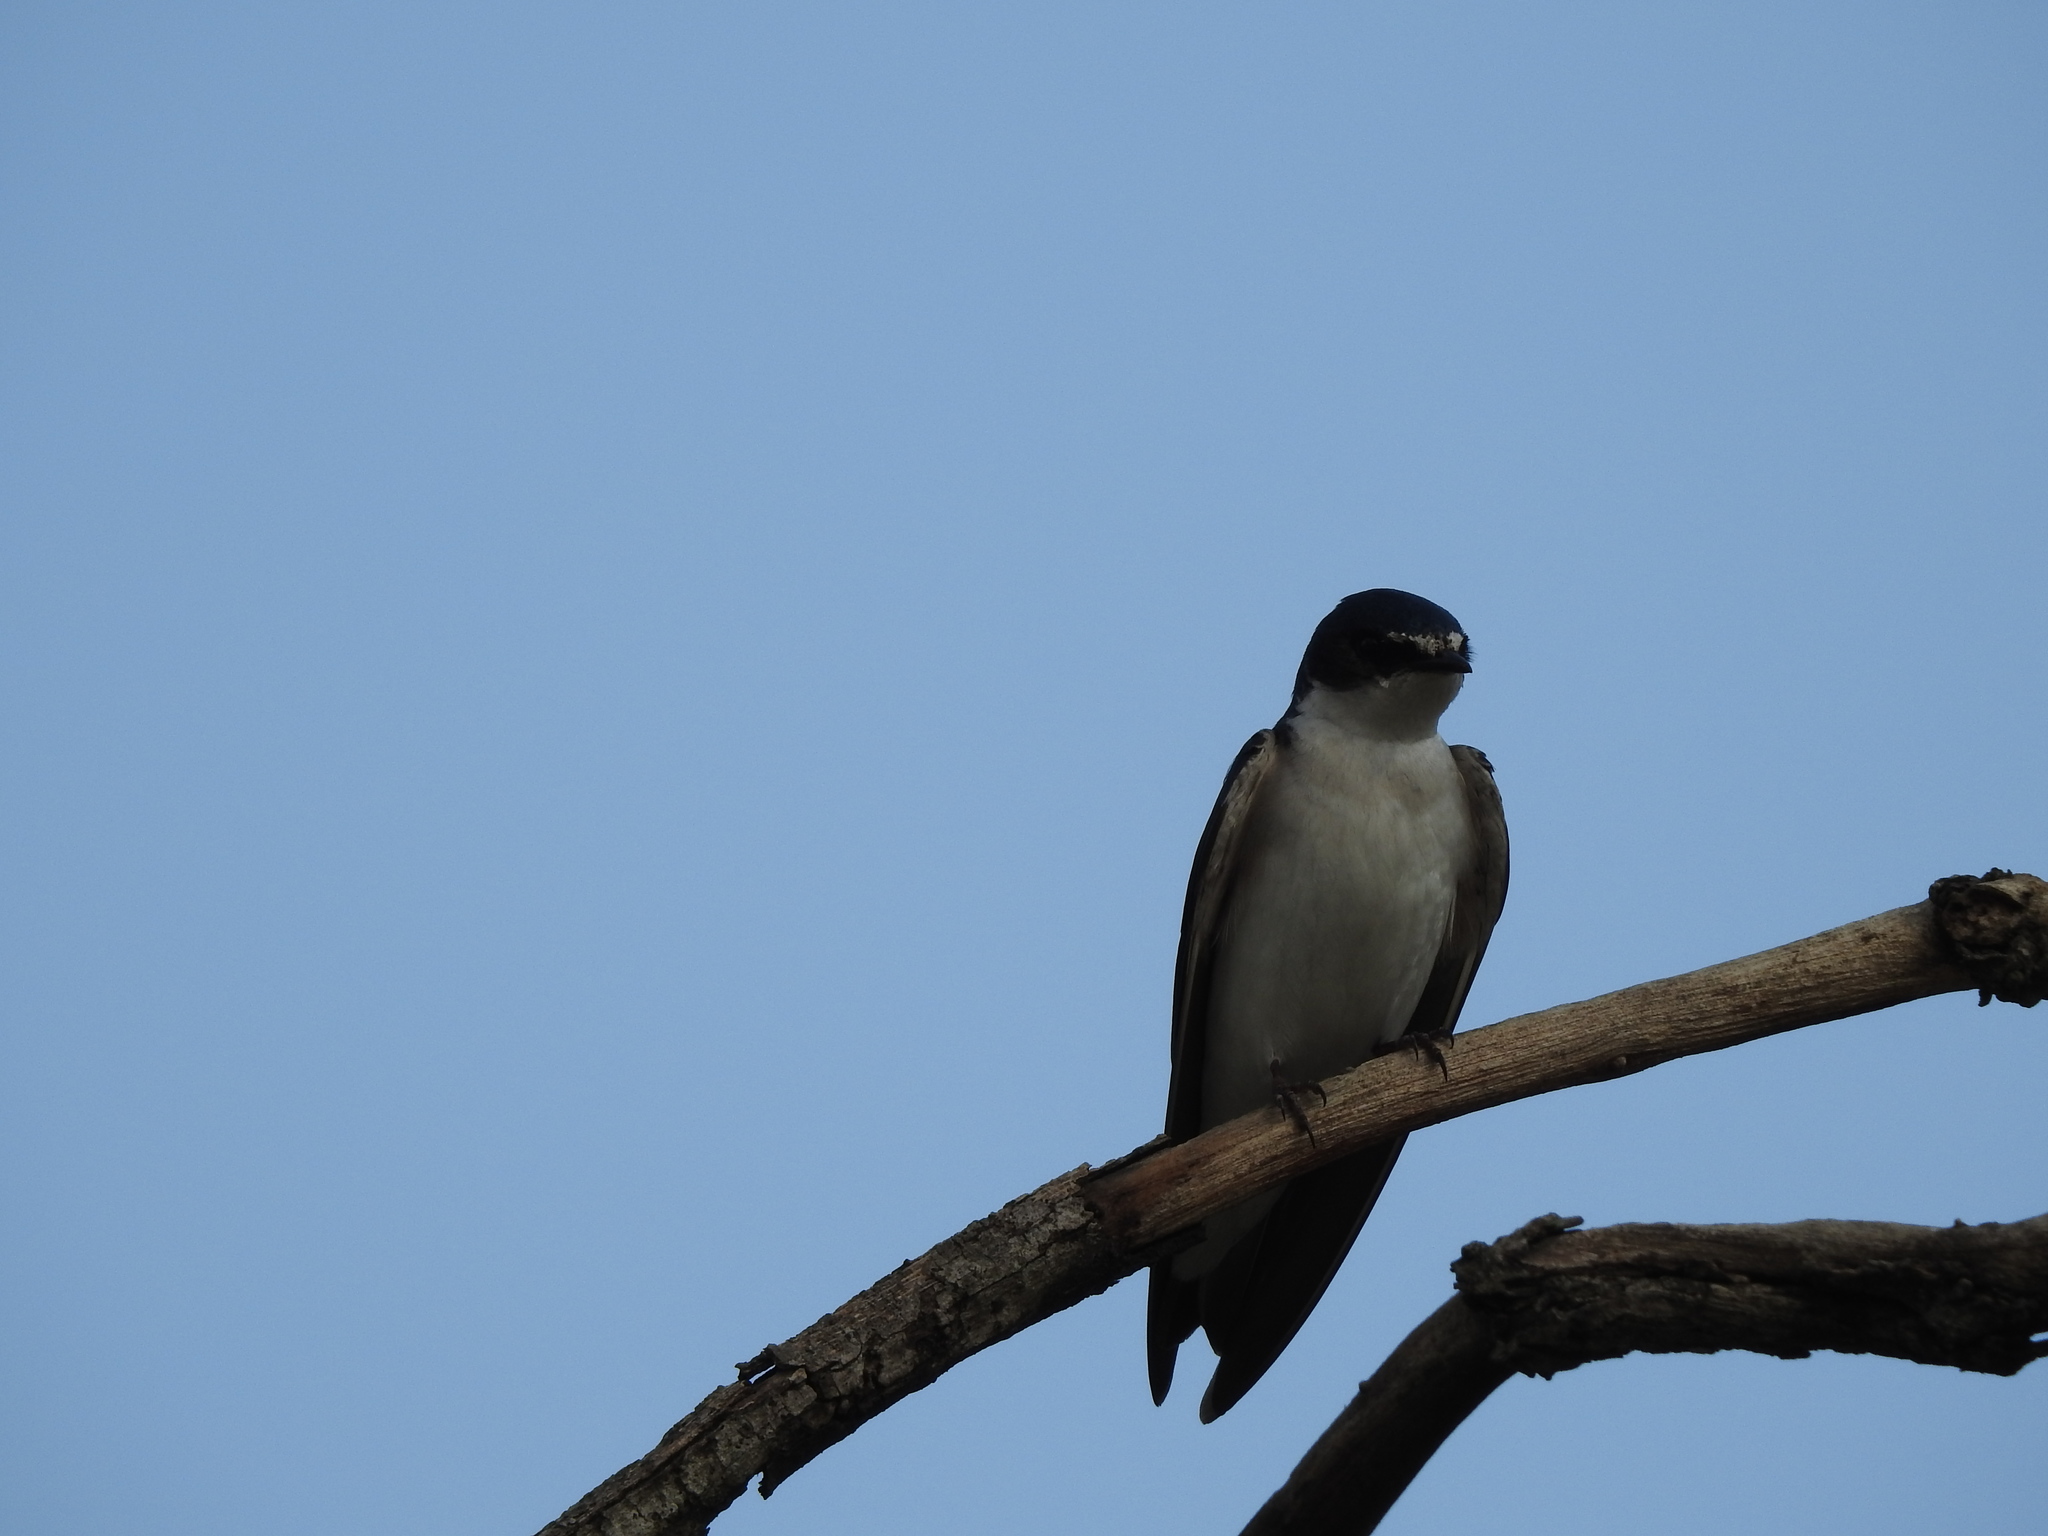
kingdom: Animalia
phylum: Chordata
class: Aves
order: Passeriformes
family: Hirundinidae
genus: Tachycineta
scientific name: Tachycineta leucorrhoa
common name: White-rumped swallow
